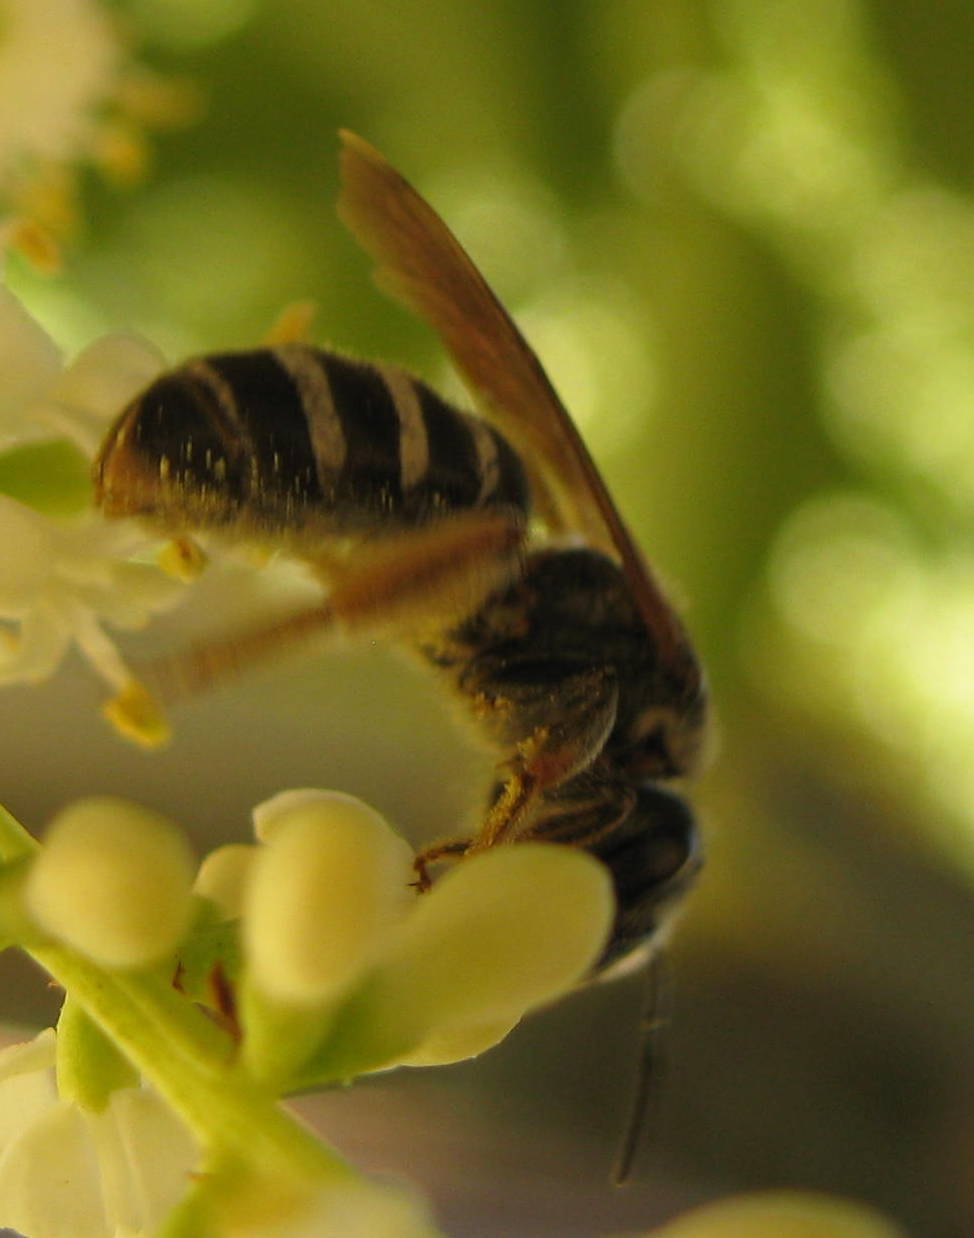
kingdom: Animalia
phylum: Arthropoda
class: Insecta
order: Hymenoptera
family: Halictidae
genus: Halictus
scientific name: Halictus farinosus
